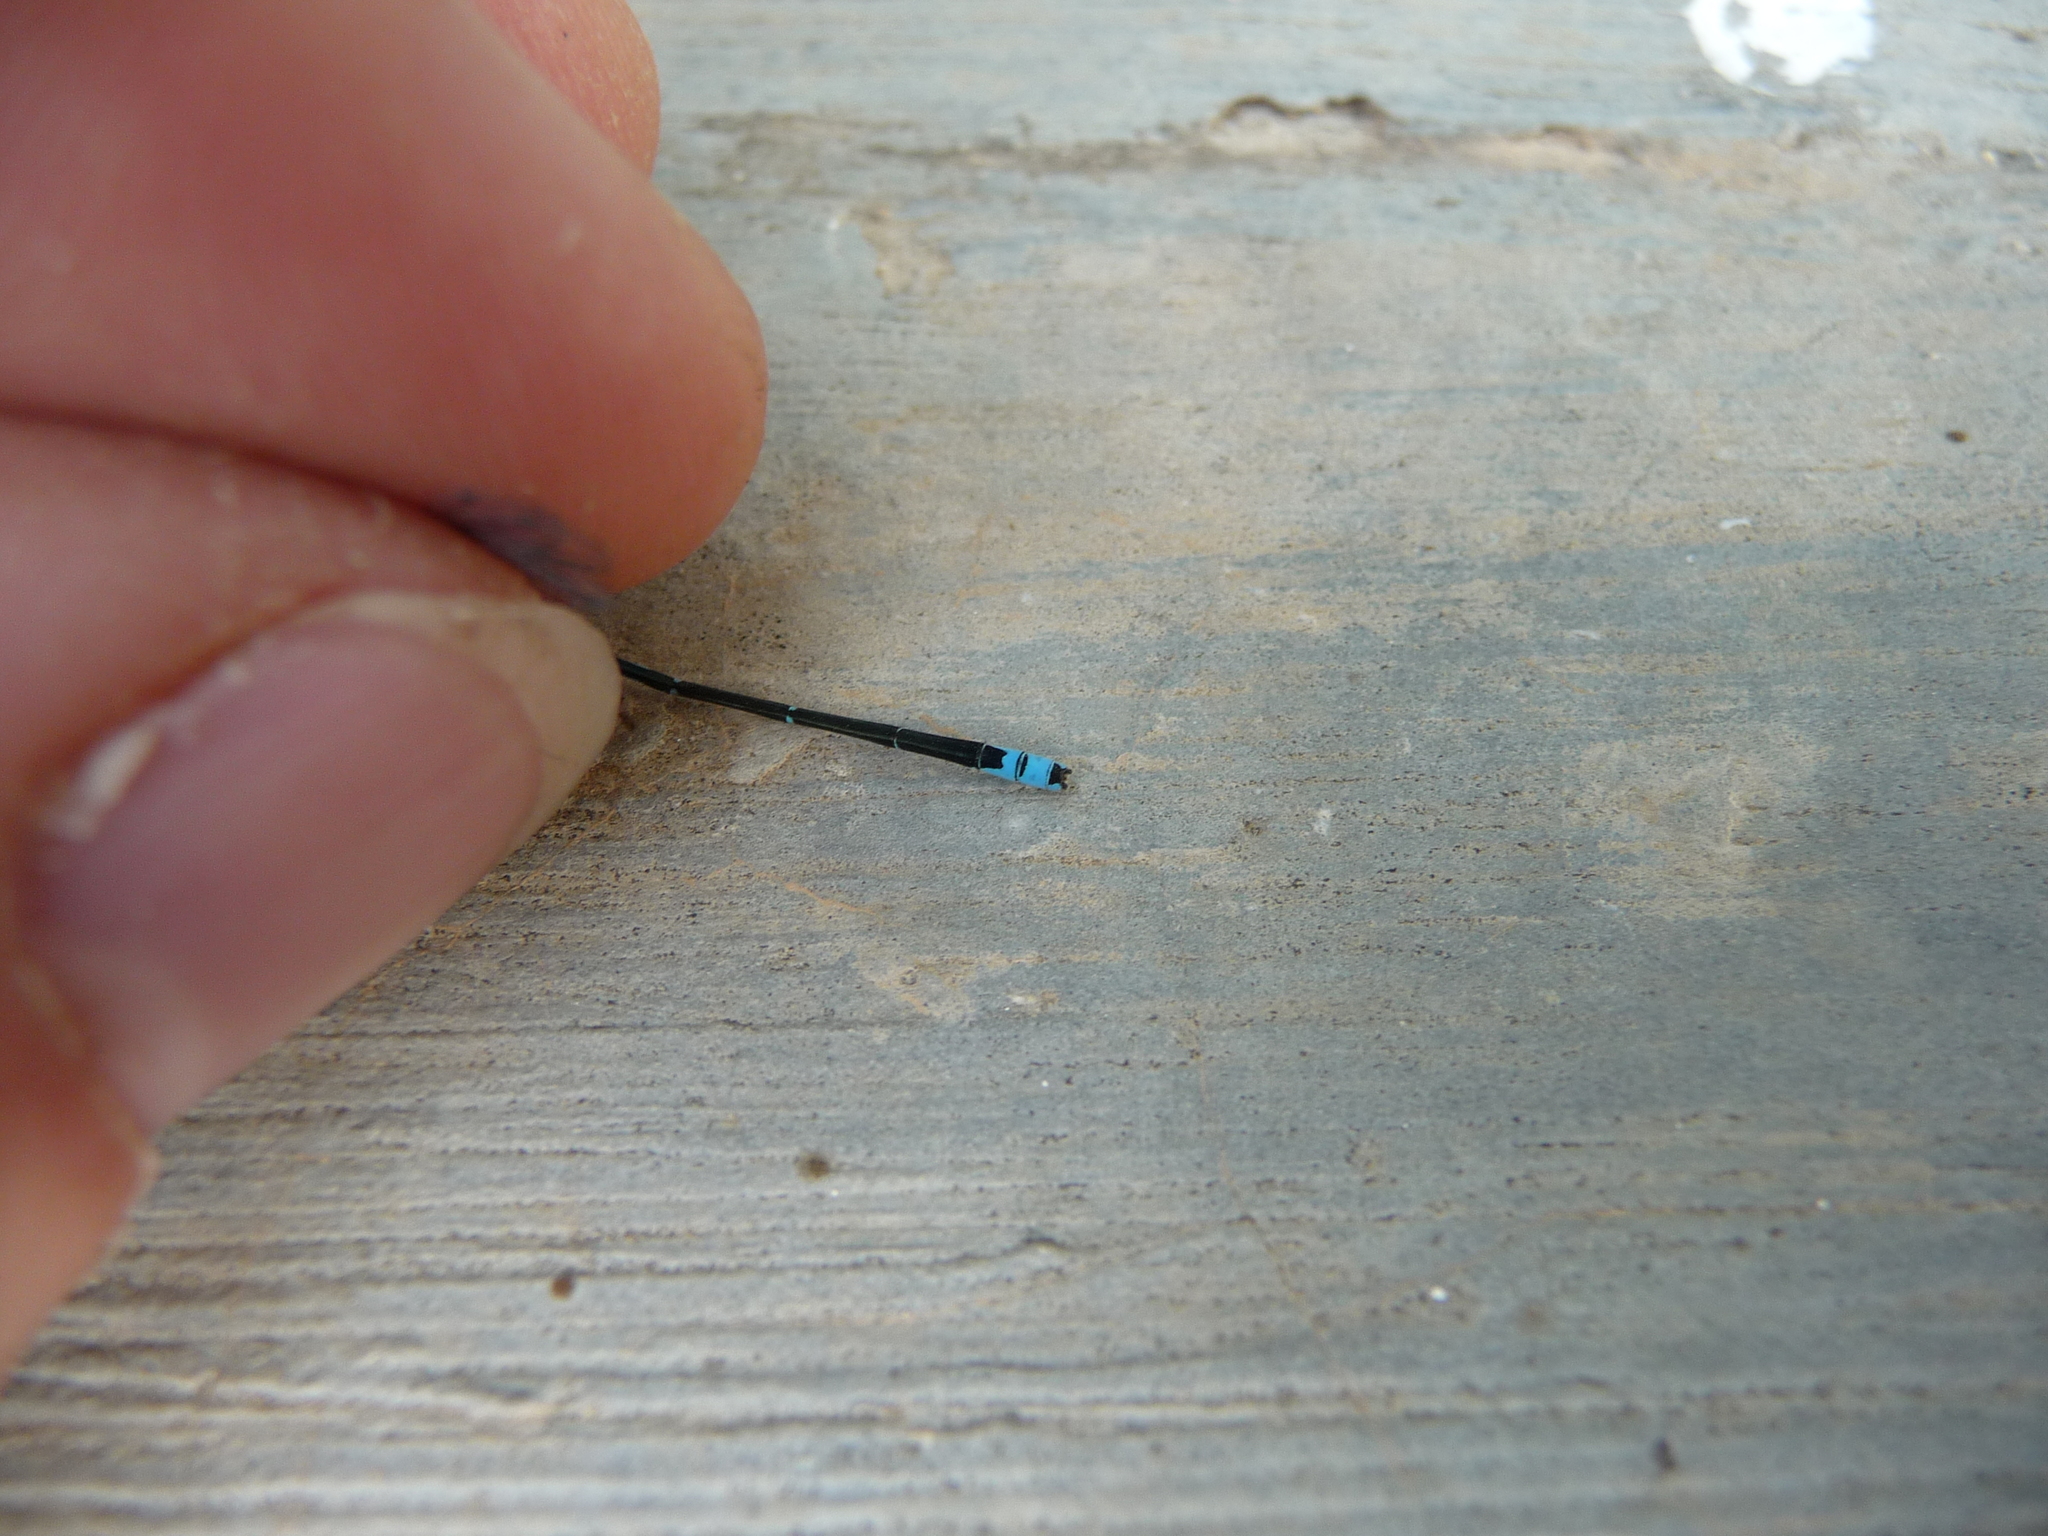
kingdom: Animalia
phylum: Arthropoda
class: Insecta
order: Odonata
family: Coenagrionidae
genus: Azuragrion
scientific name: Azuragrion nigridorsum
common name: Sailing azuret
